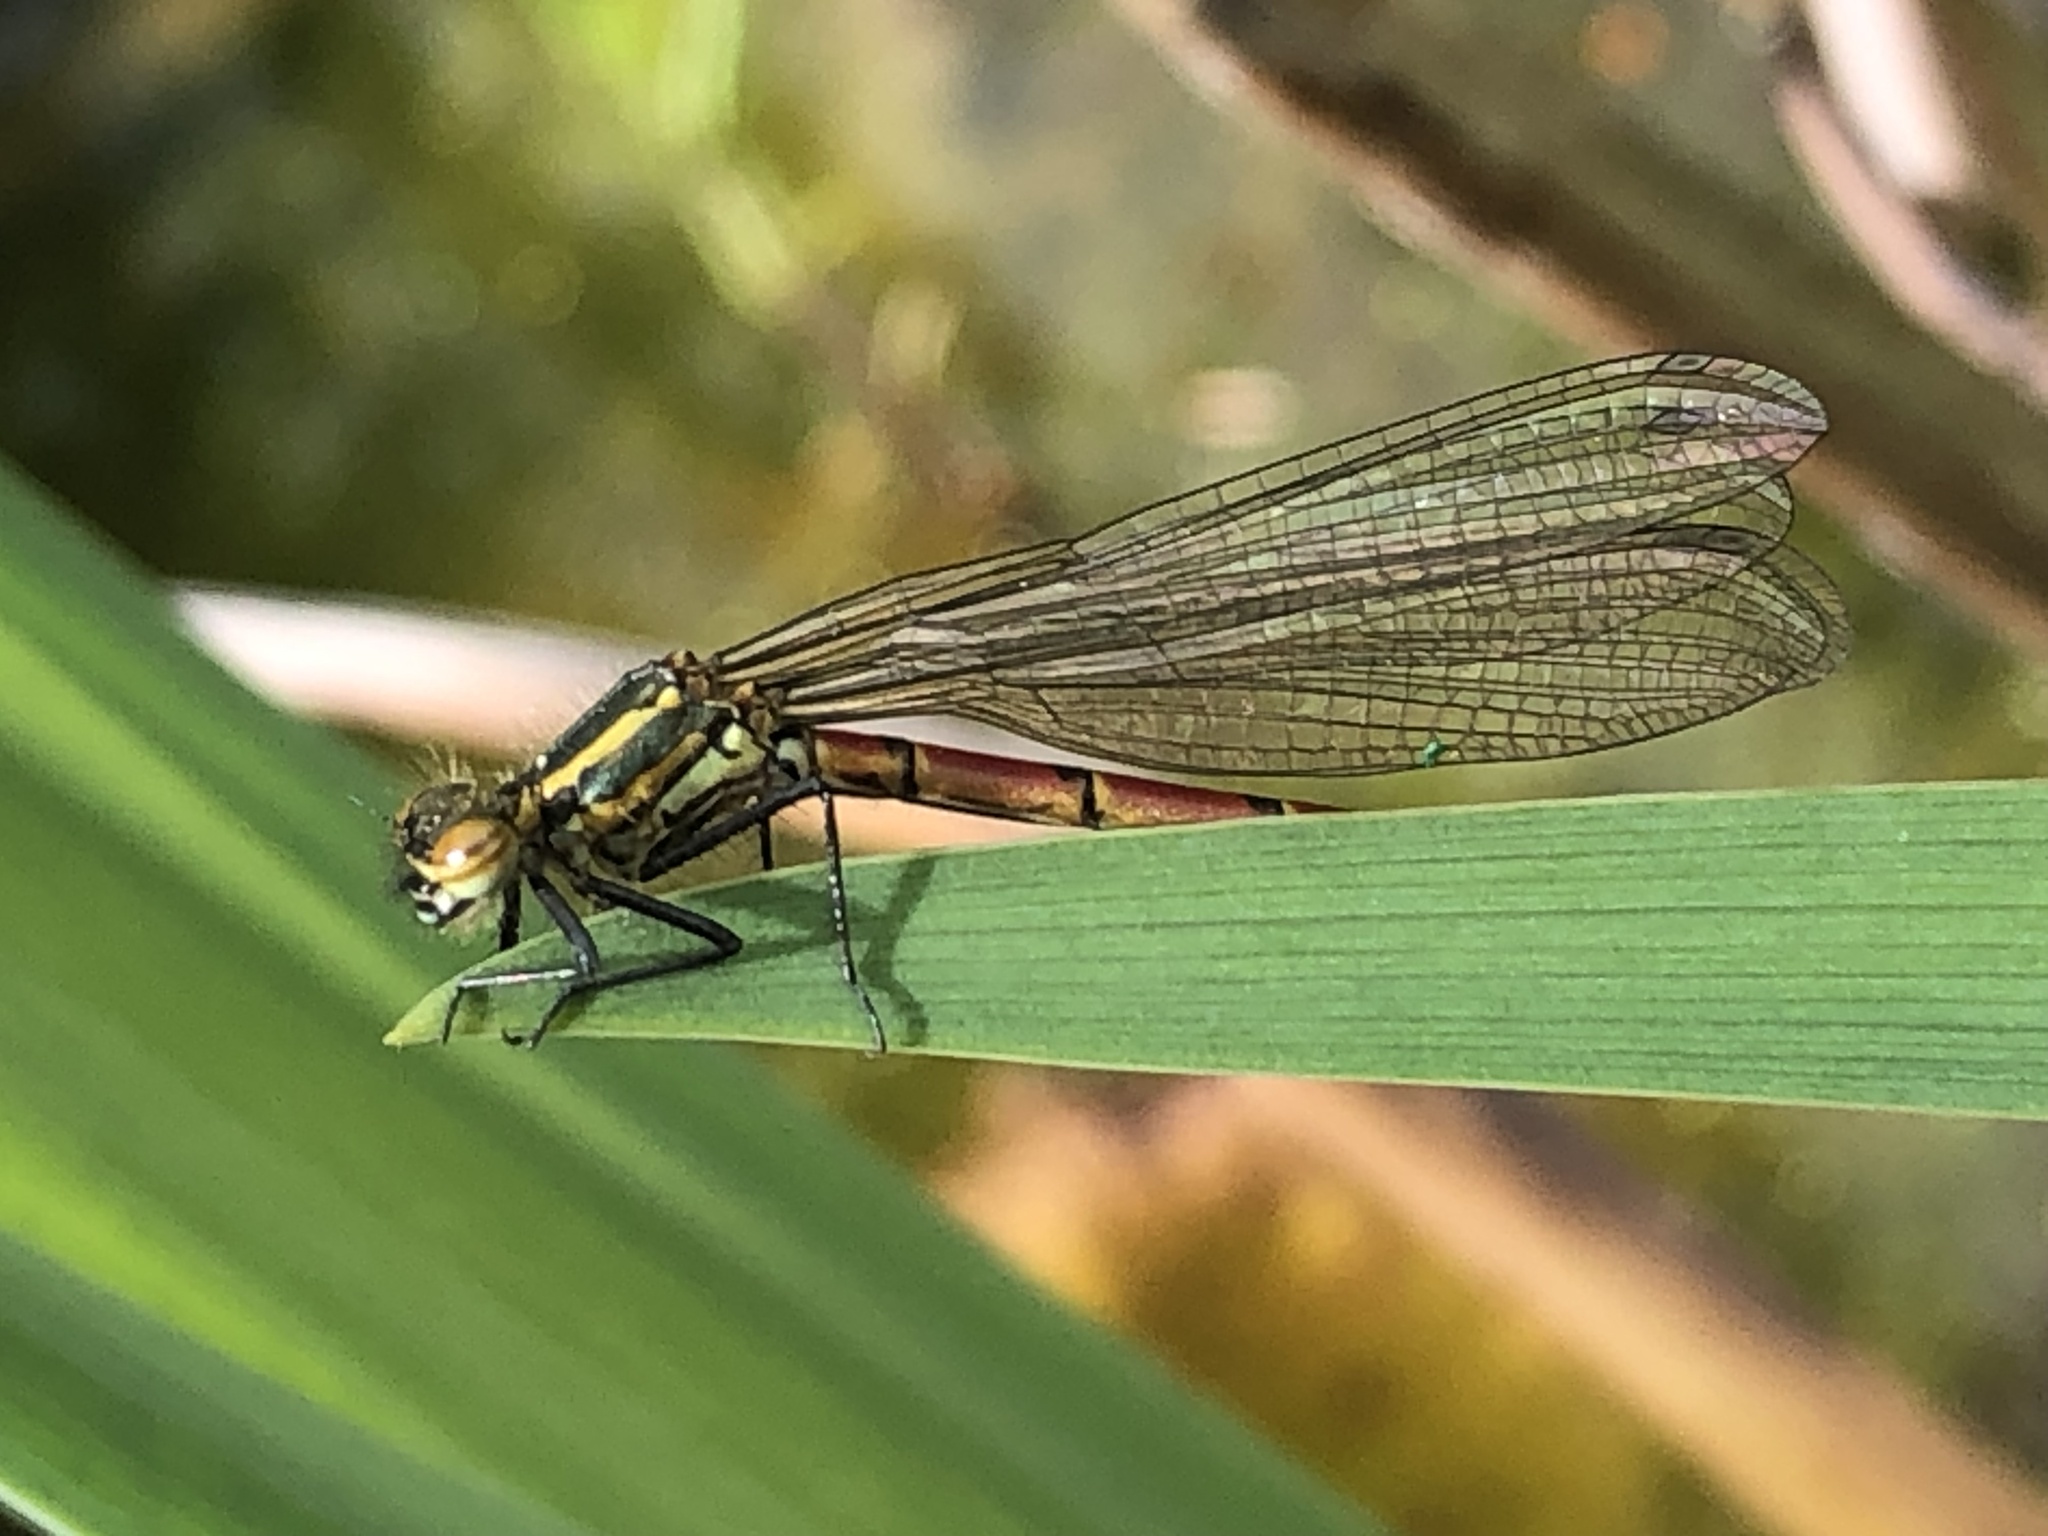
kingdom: Animalia
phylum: Arthropoda
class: Insecta
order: Odonata
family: Coenagrionidae
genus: Pyrrhosoma
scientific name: Pyrrhosoma nymphula
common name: Large red damsel
